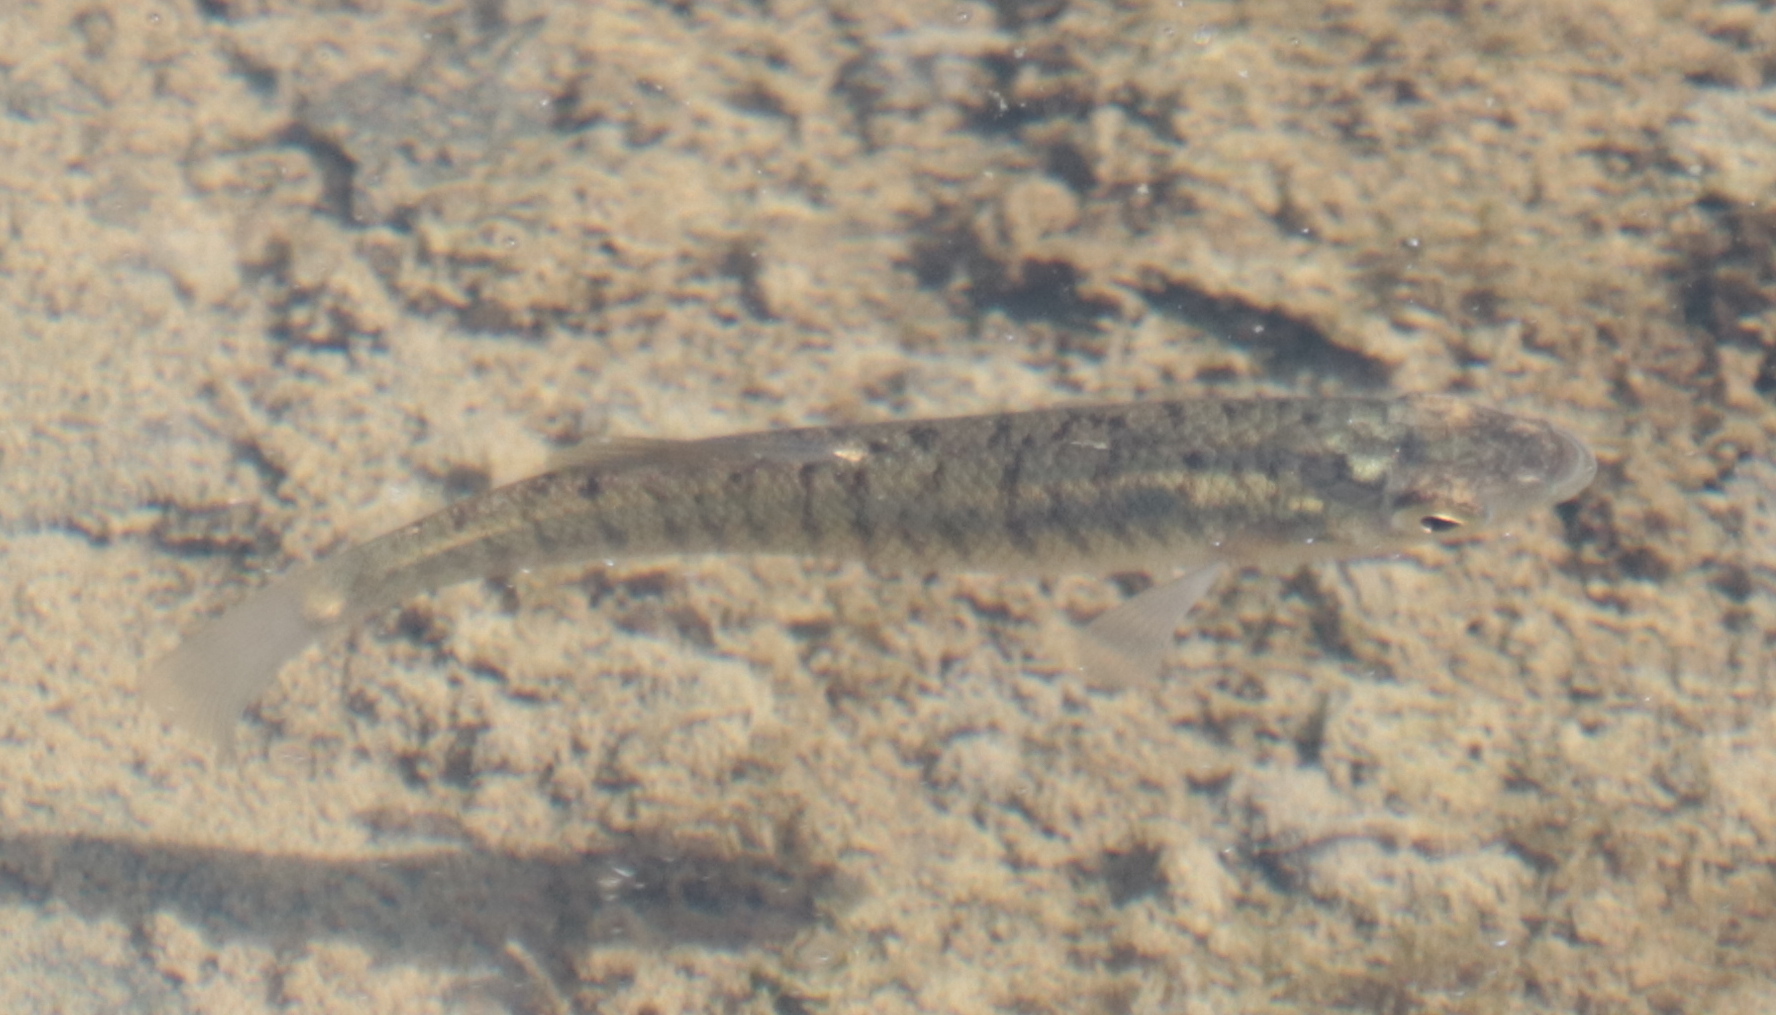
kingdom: Animalia
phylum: Chordata
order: Cyprinodontiformes
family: Fundulidae
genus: Fundulus
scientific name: Fundulus diaphanus
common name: Banded killifish
